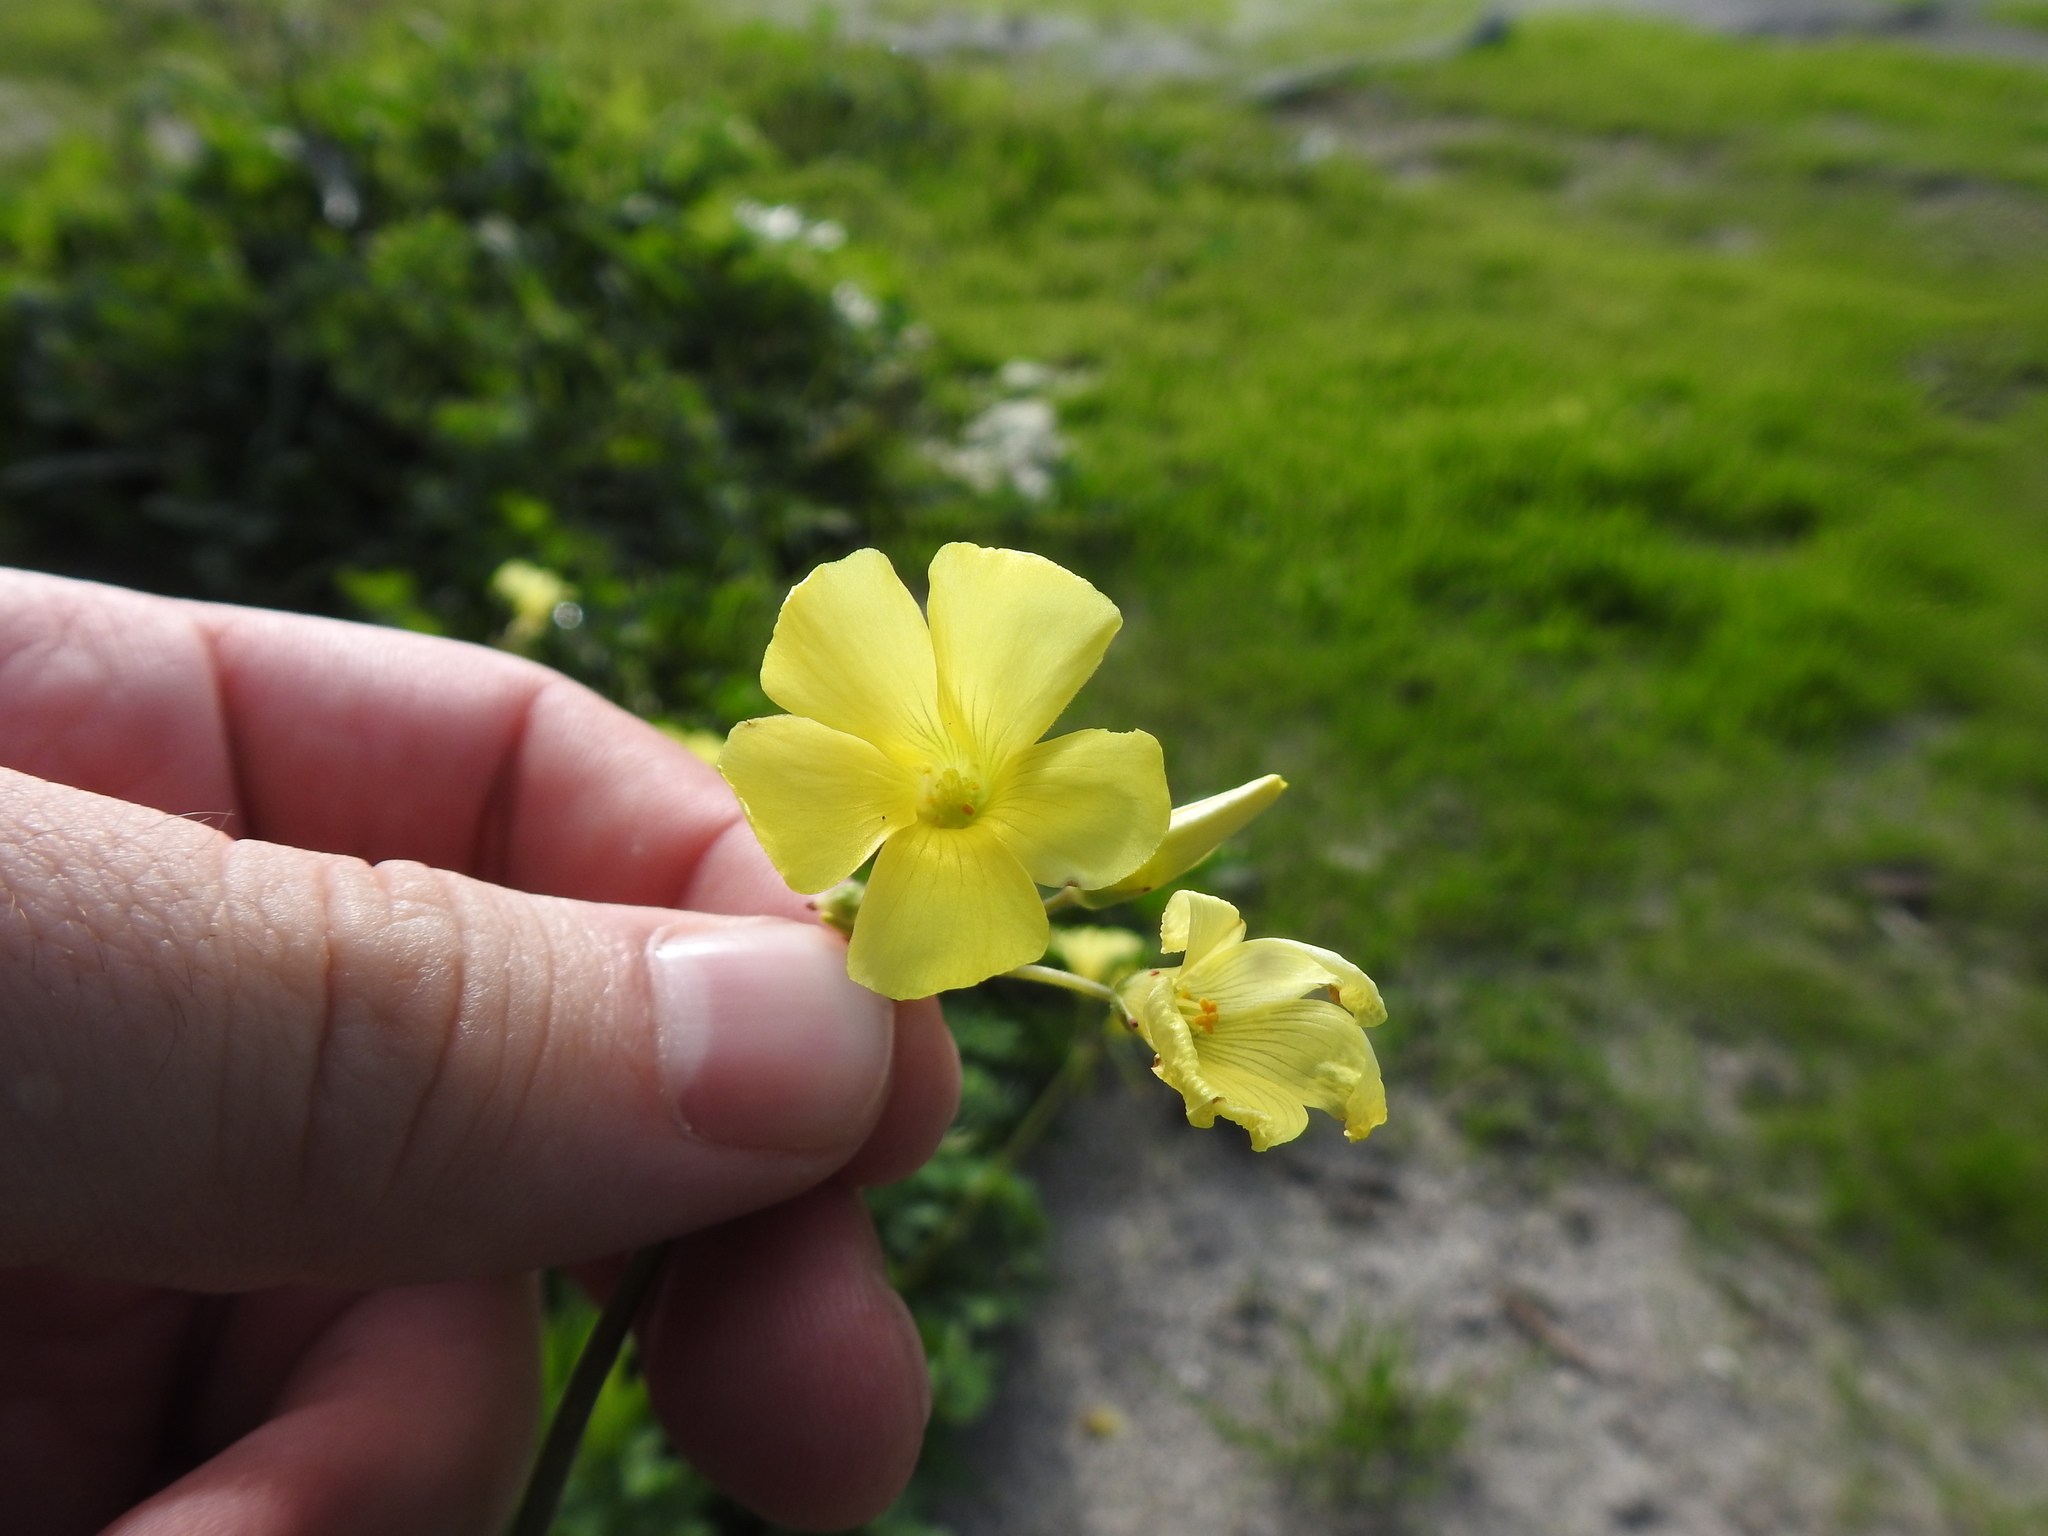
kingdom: Plantae
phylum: Tracheophyta
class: Magnoliopsida
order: Oxalidales
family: Oxalidaceae
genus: Oxalis
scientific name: Oxalis pes-caprae
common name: Bermuda-buttercup
